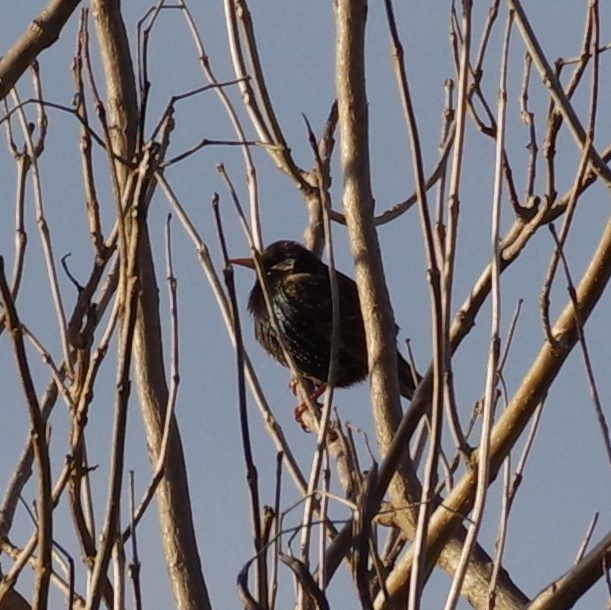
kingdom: Animalia
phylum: Chordata
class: Aves
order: Passeriformes
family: Sturnidae
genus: Sturnus
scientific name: Sturnus vulgaris
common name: Common starling
